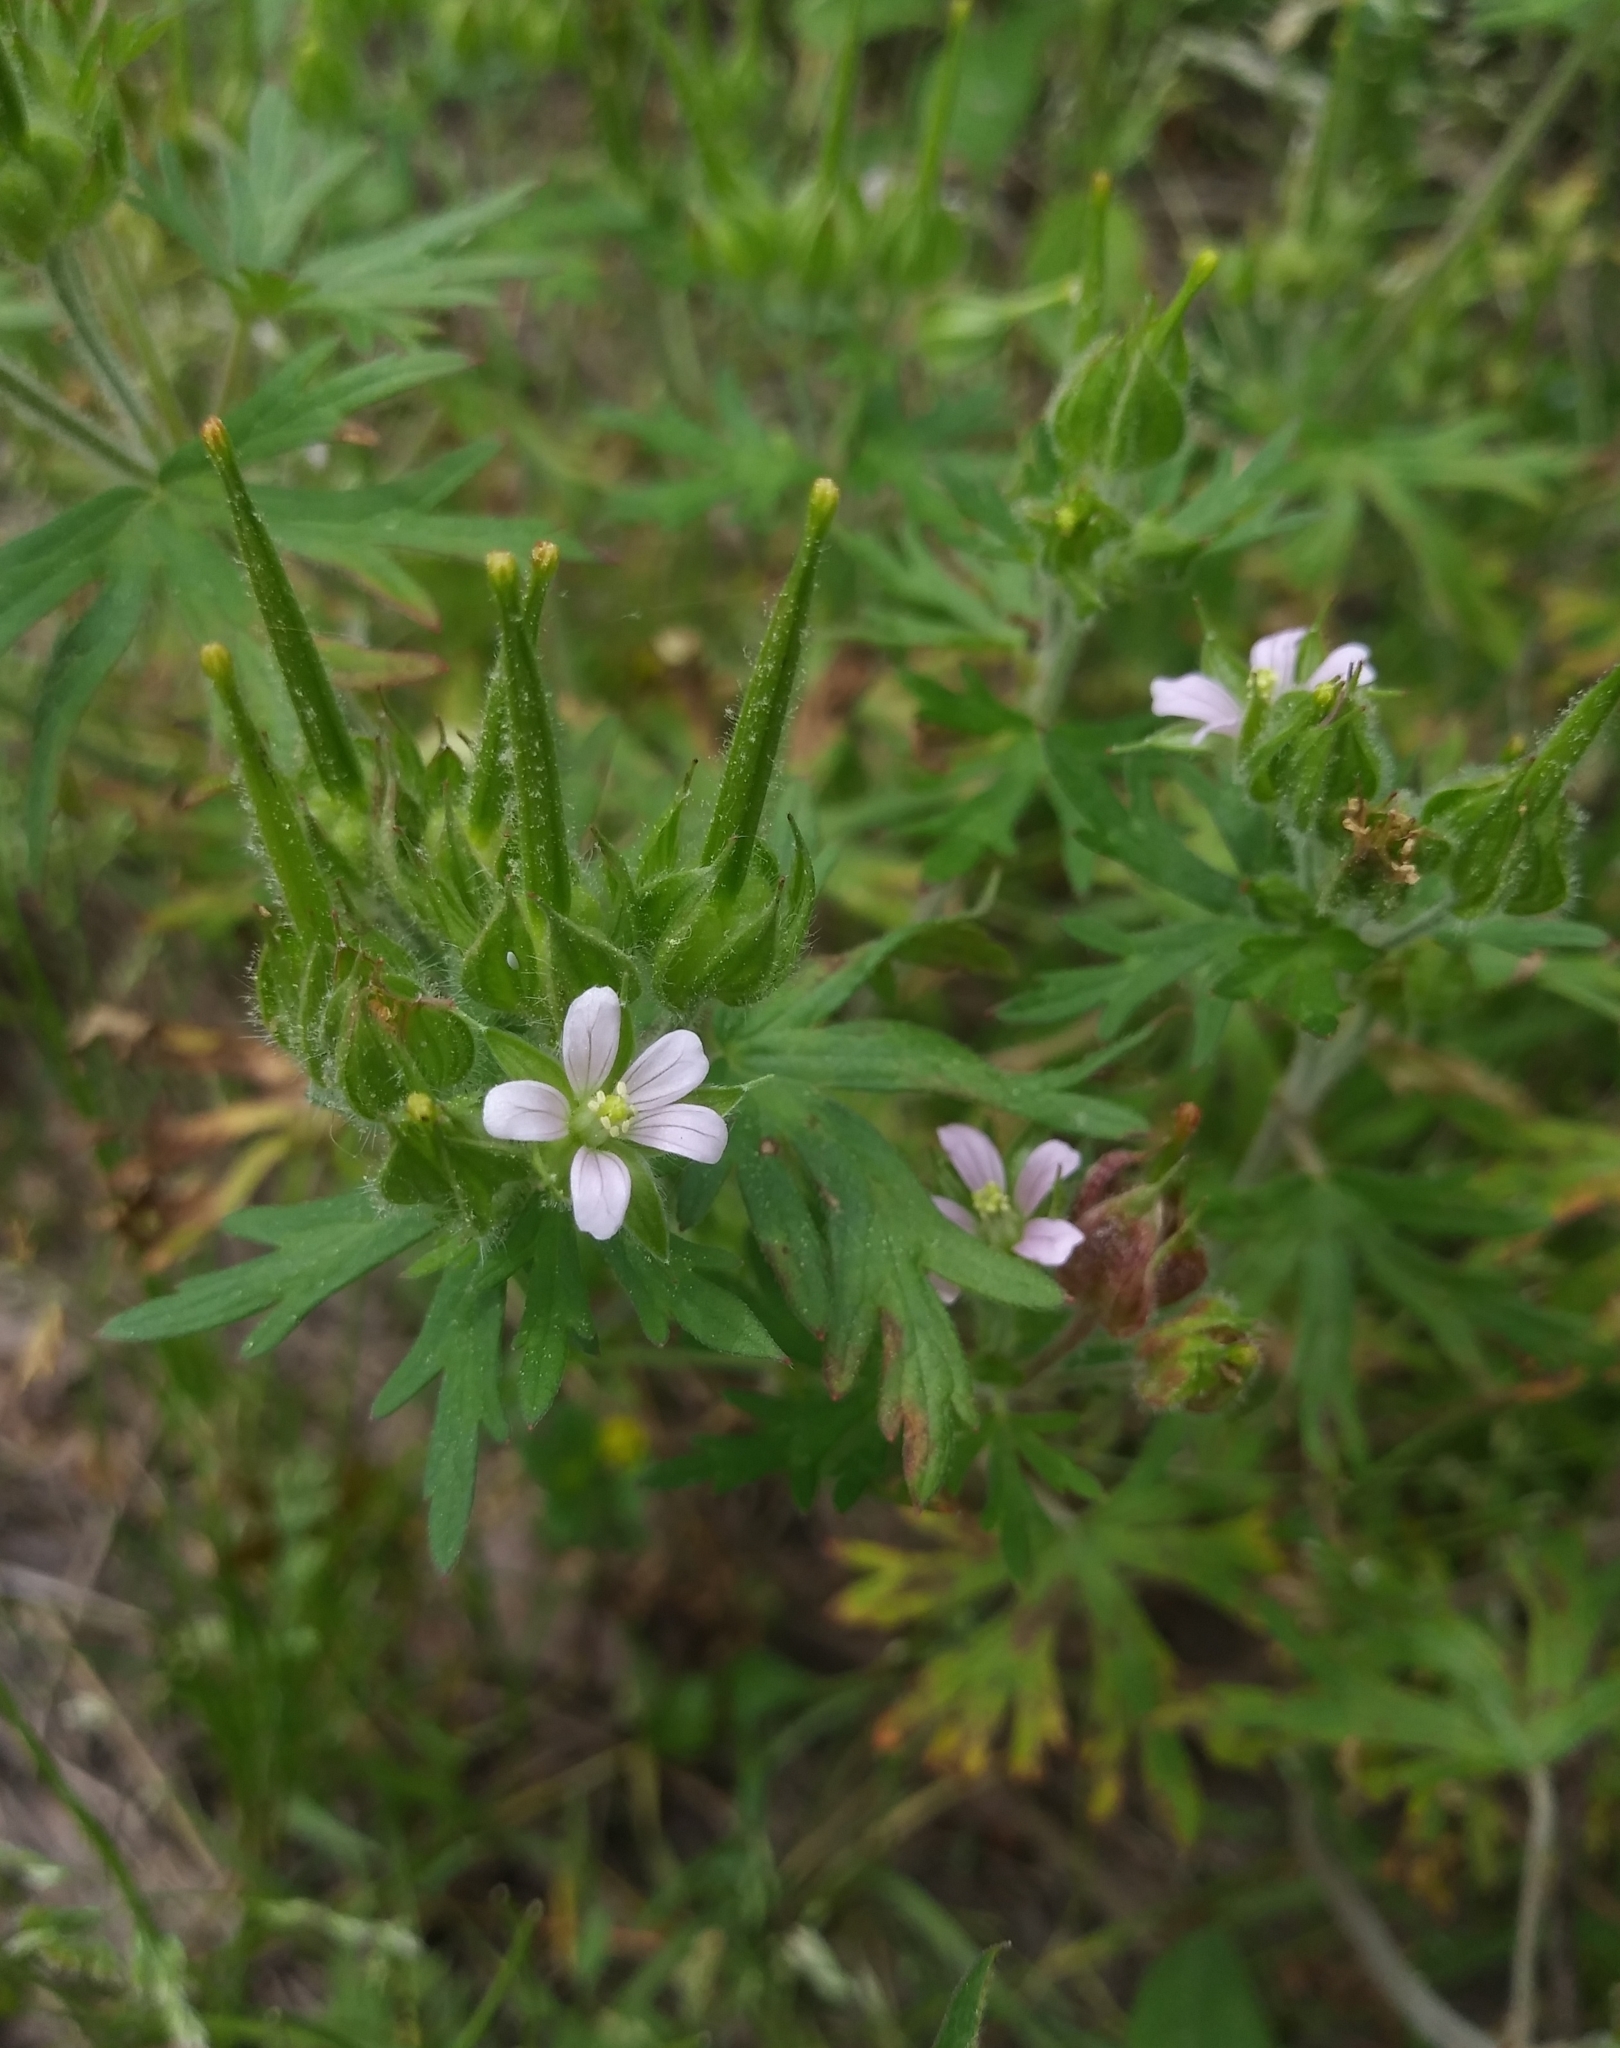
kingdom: Plantae
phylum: Tracheophyta
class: Magnoliopsida
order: Geraniales
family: Geraniaceae
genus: Geranium
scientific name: Geranium carolinianum
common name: Carolina crane's-bill
